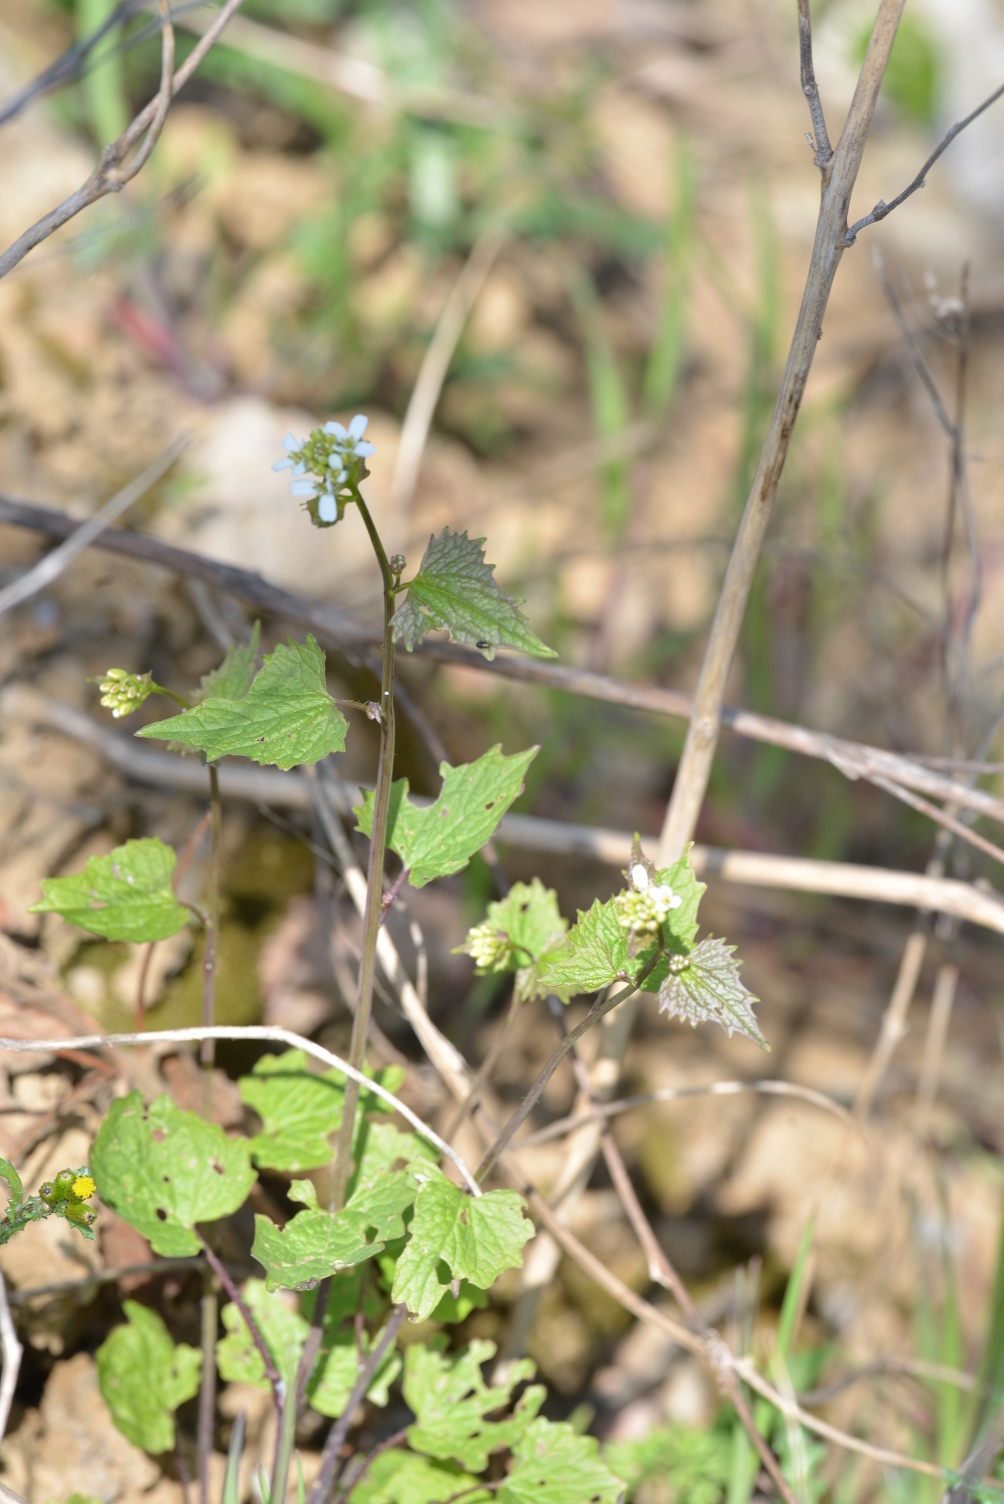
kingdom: Plantae
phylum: Tracheophyta
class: Magnoliopsida
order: Brassicales
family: Brassicaceae
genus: Alliaria
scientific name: Alliaria petiolata
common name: Garlic mustard
